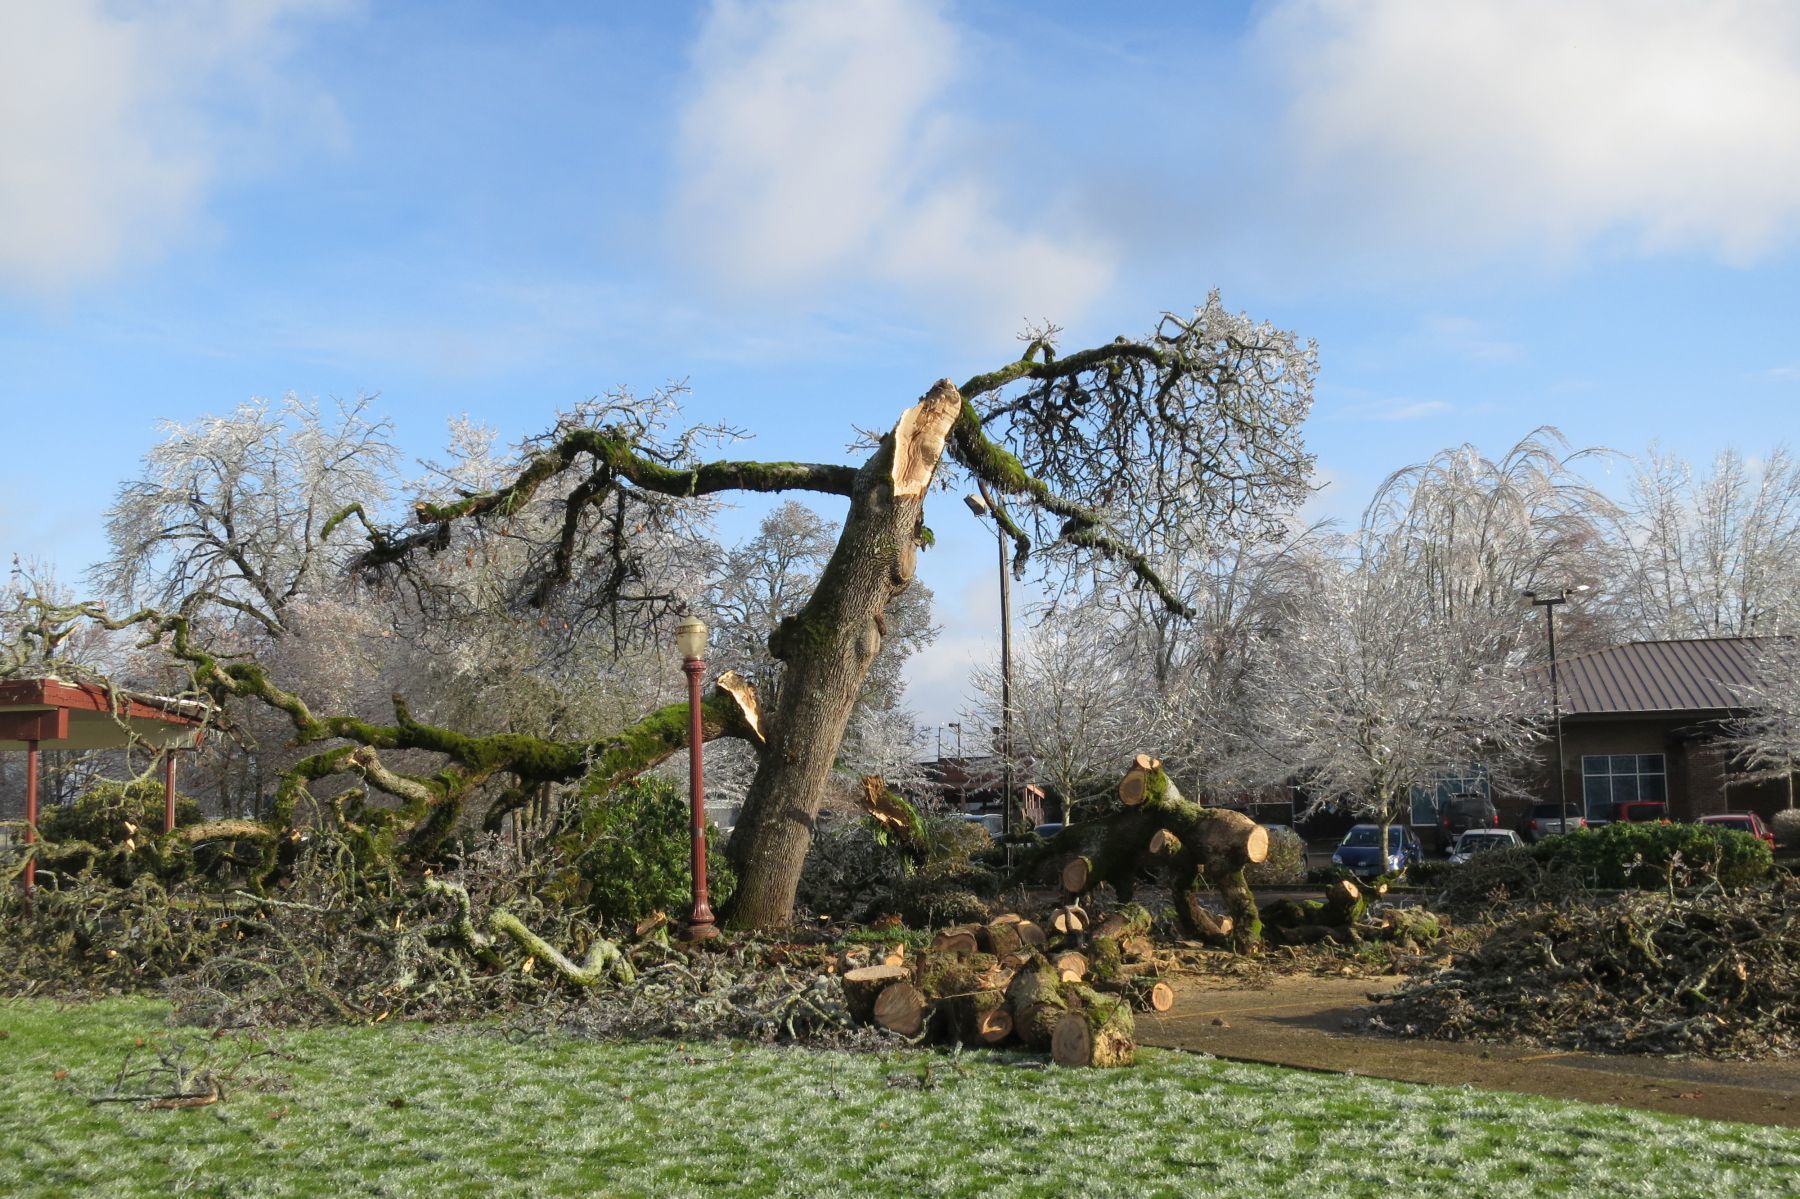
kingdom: Plantae
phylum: Tracheophyta
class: Magnoliopsida
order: Fagales
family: Fagaceae
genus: Quercus
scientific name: Quercus garryana
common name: Garry oak
